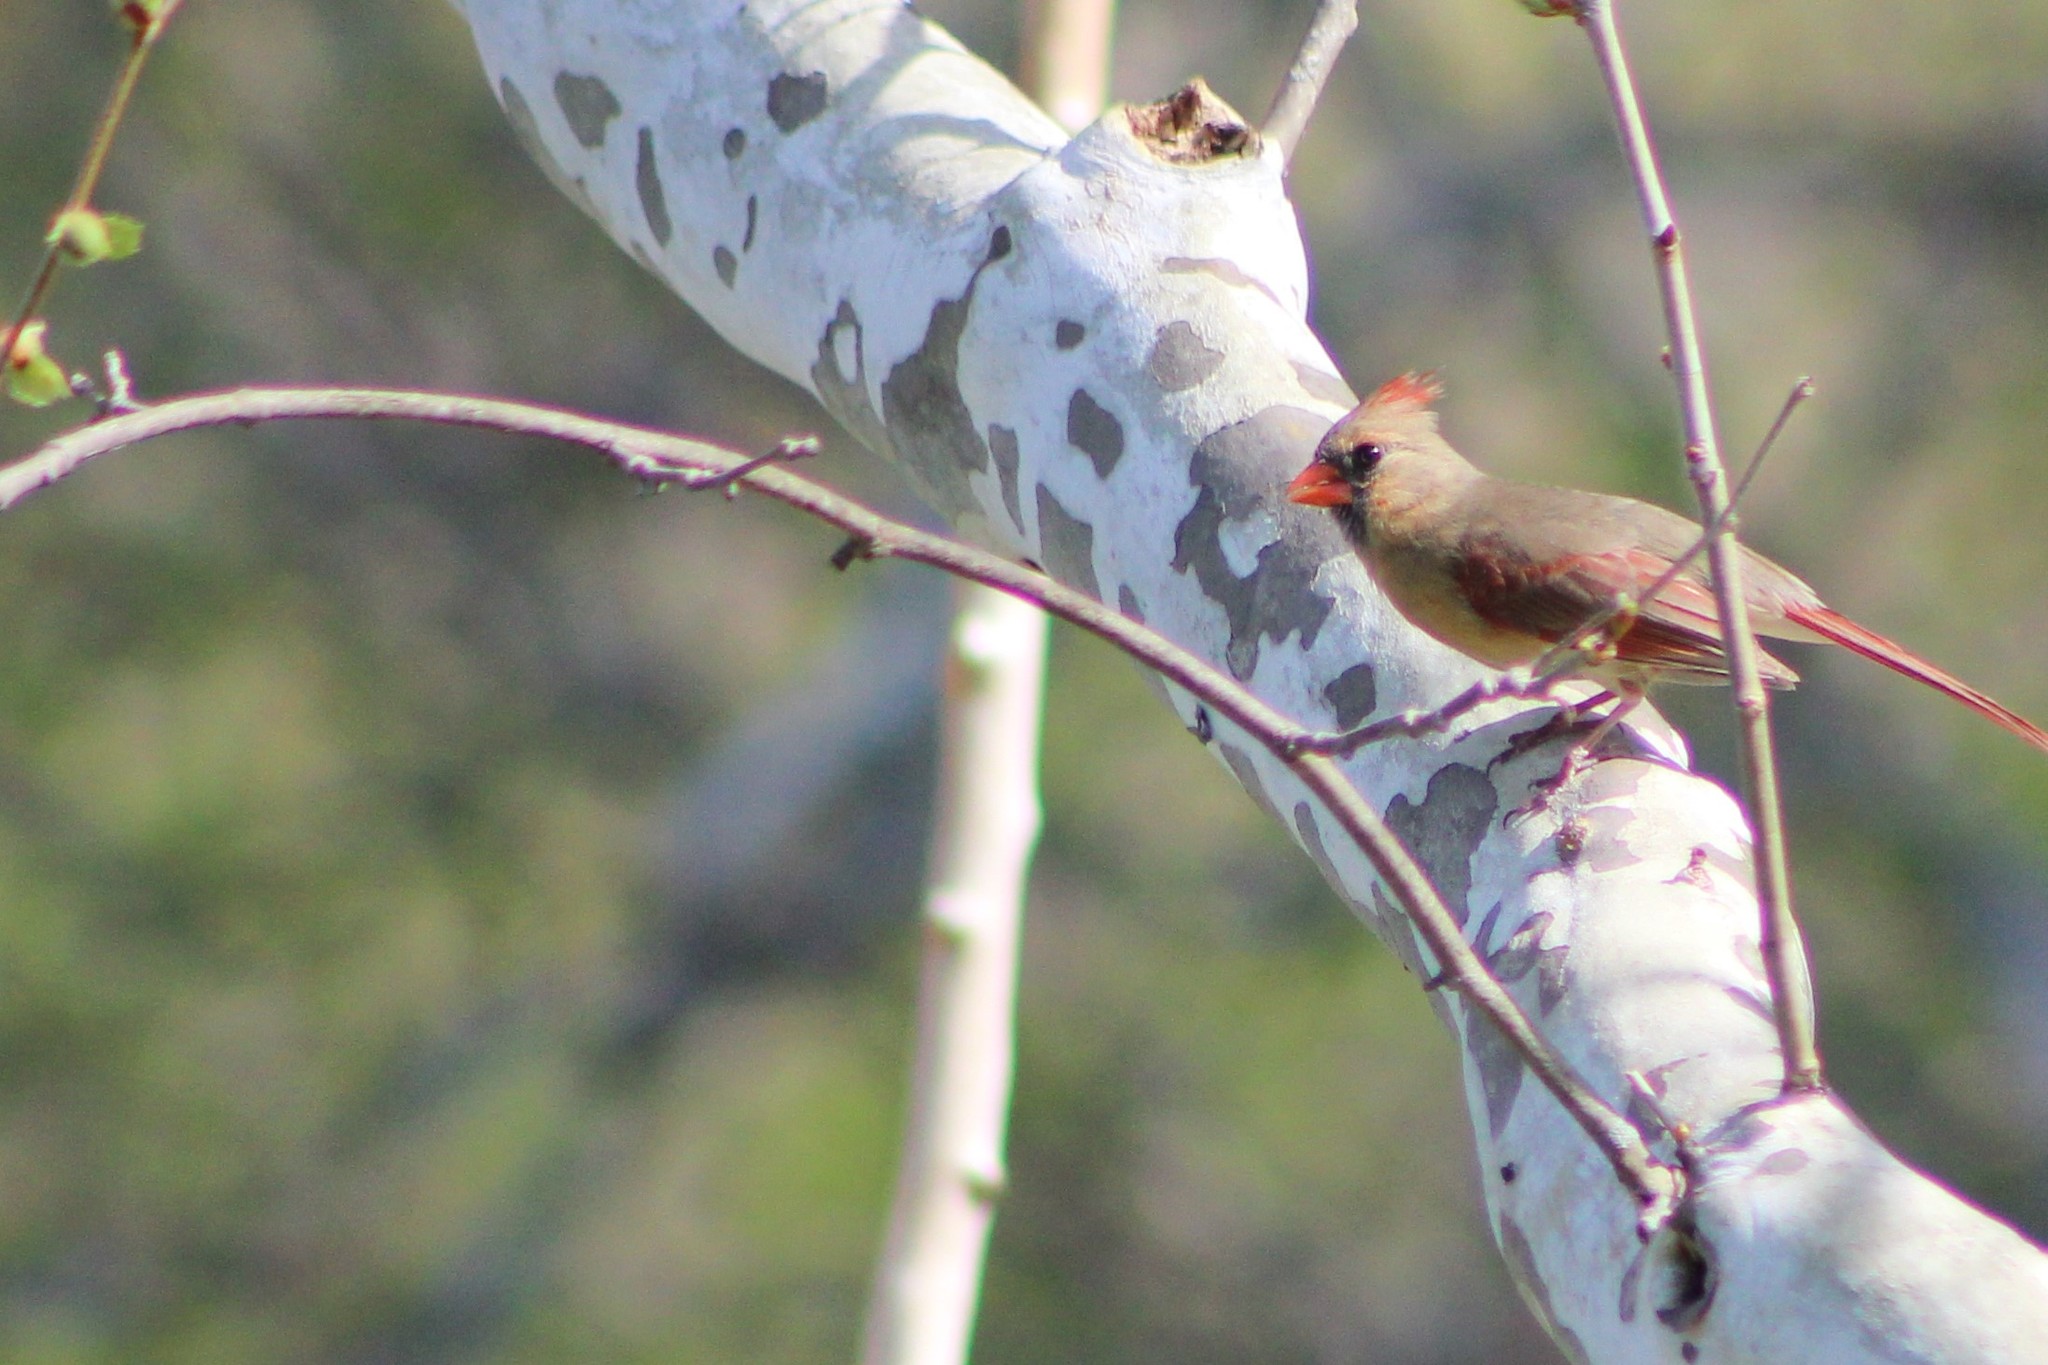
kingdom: Animalia
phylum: Chordata
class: Aves
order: Passeriformes
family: Cardinalidae
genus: Cardinalis
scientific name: Cardinalis cardinalis
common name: Northern cardinal
